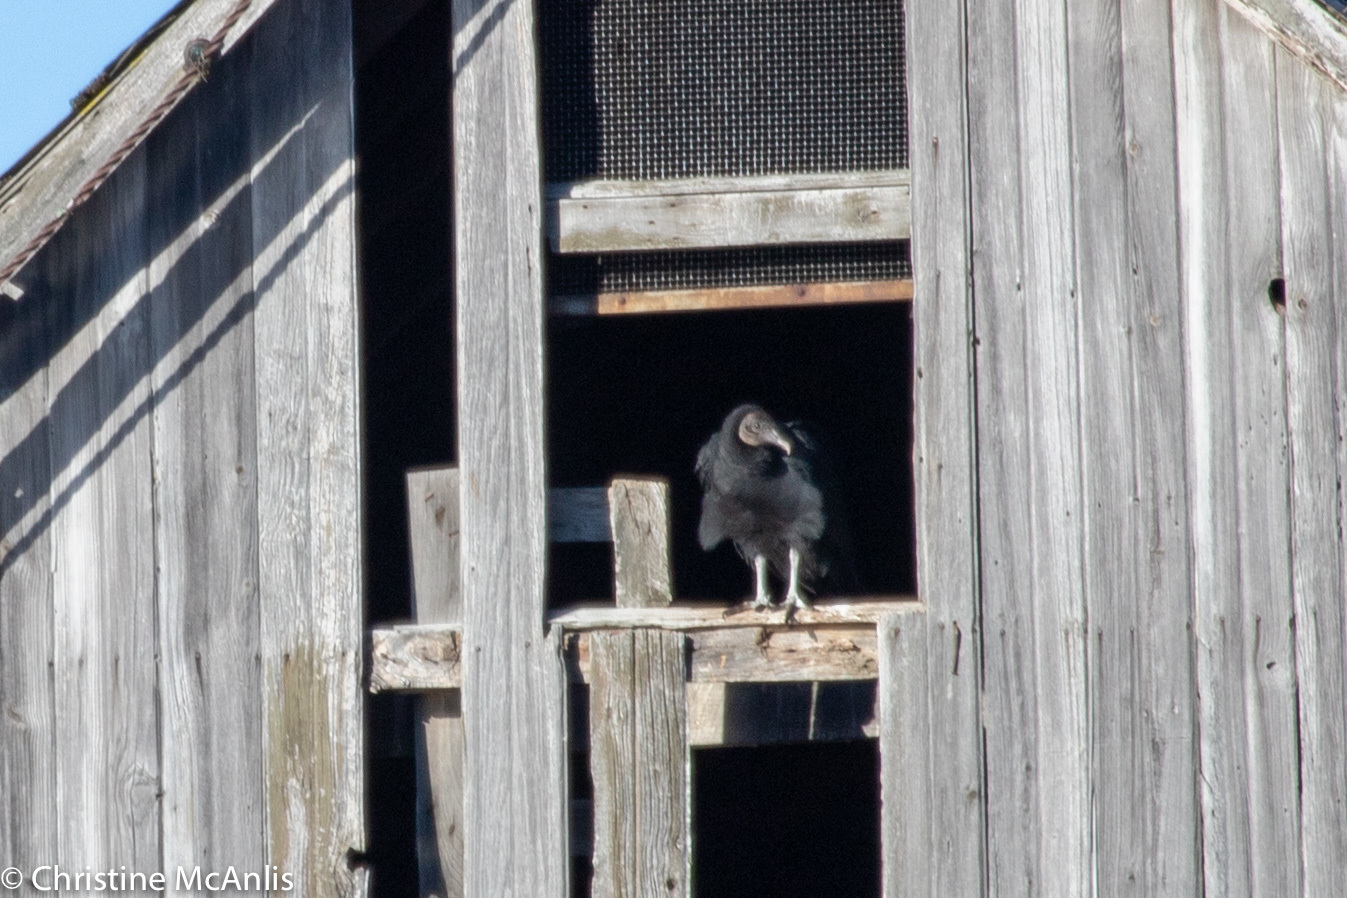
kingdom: Animalia
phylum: Chordata
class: Aves
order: Accipitriformes
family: Cathartidae
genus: Coragyps
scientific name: Coragyps atratus
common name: Black vulture
